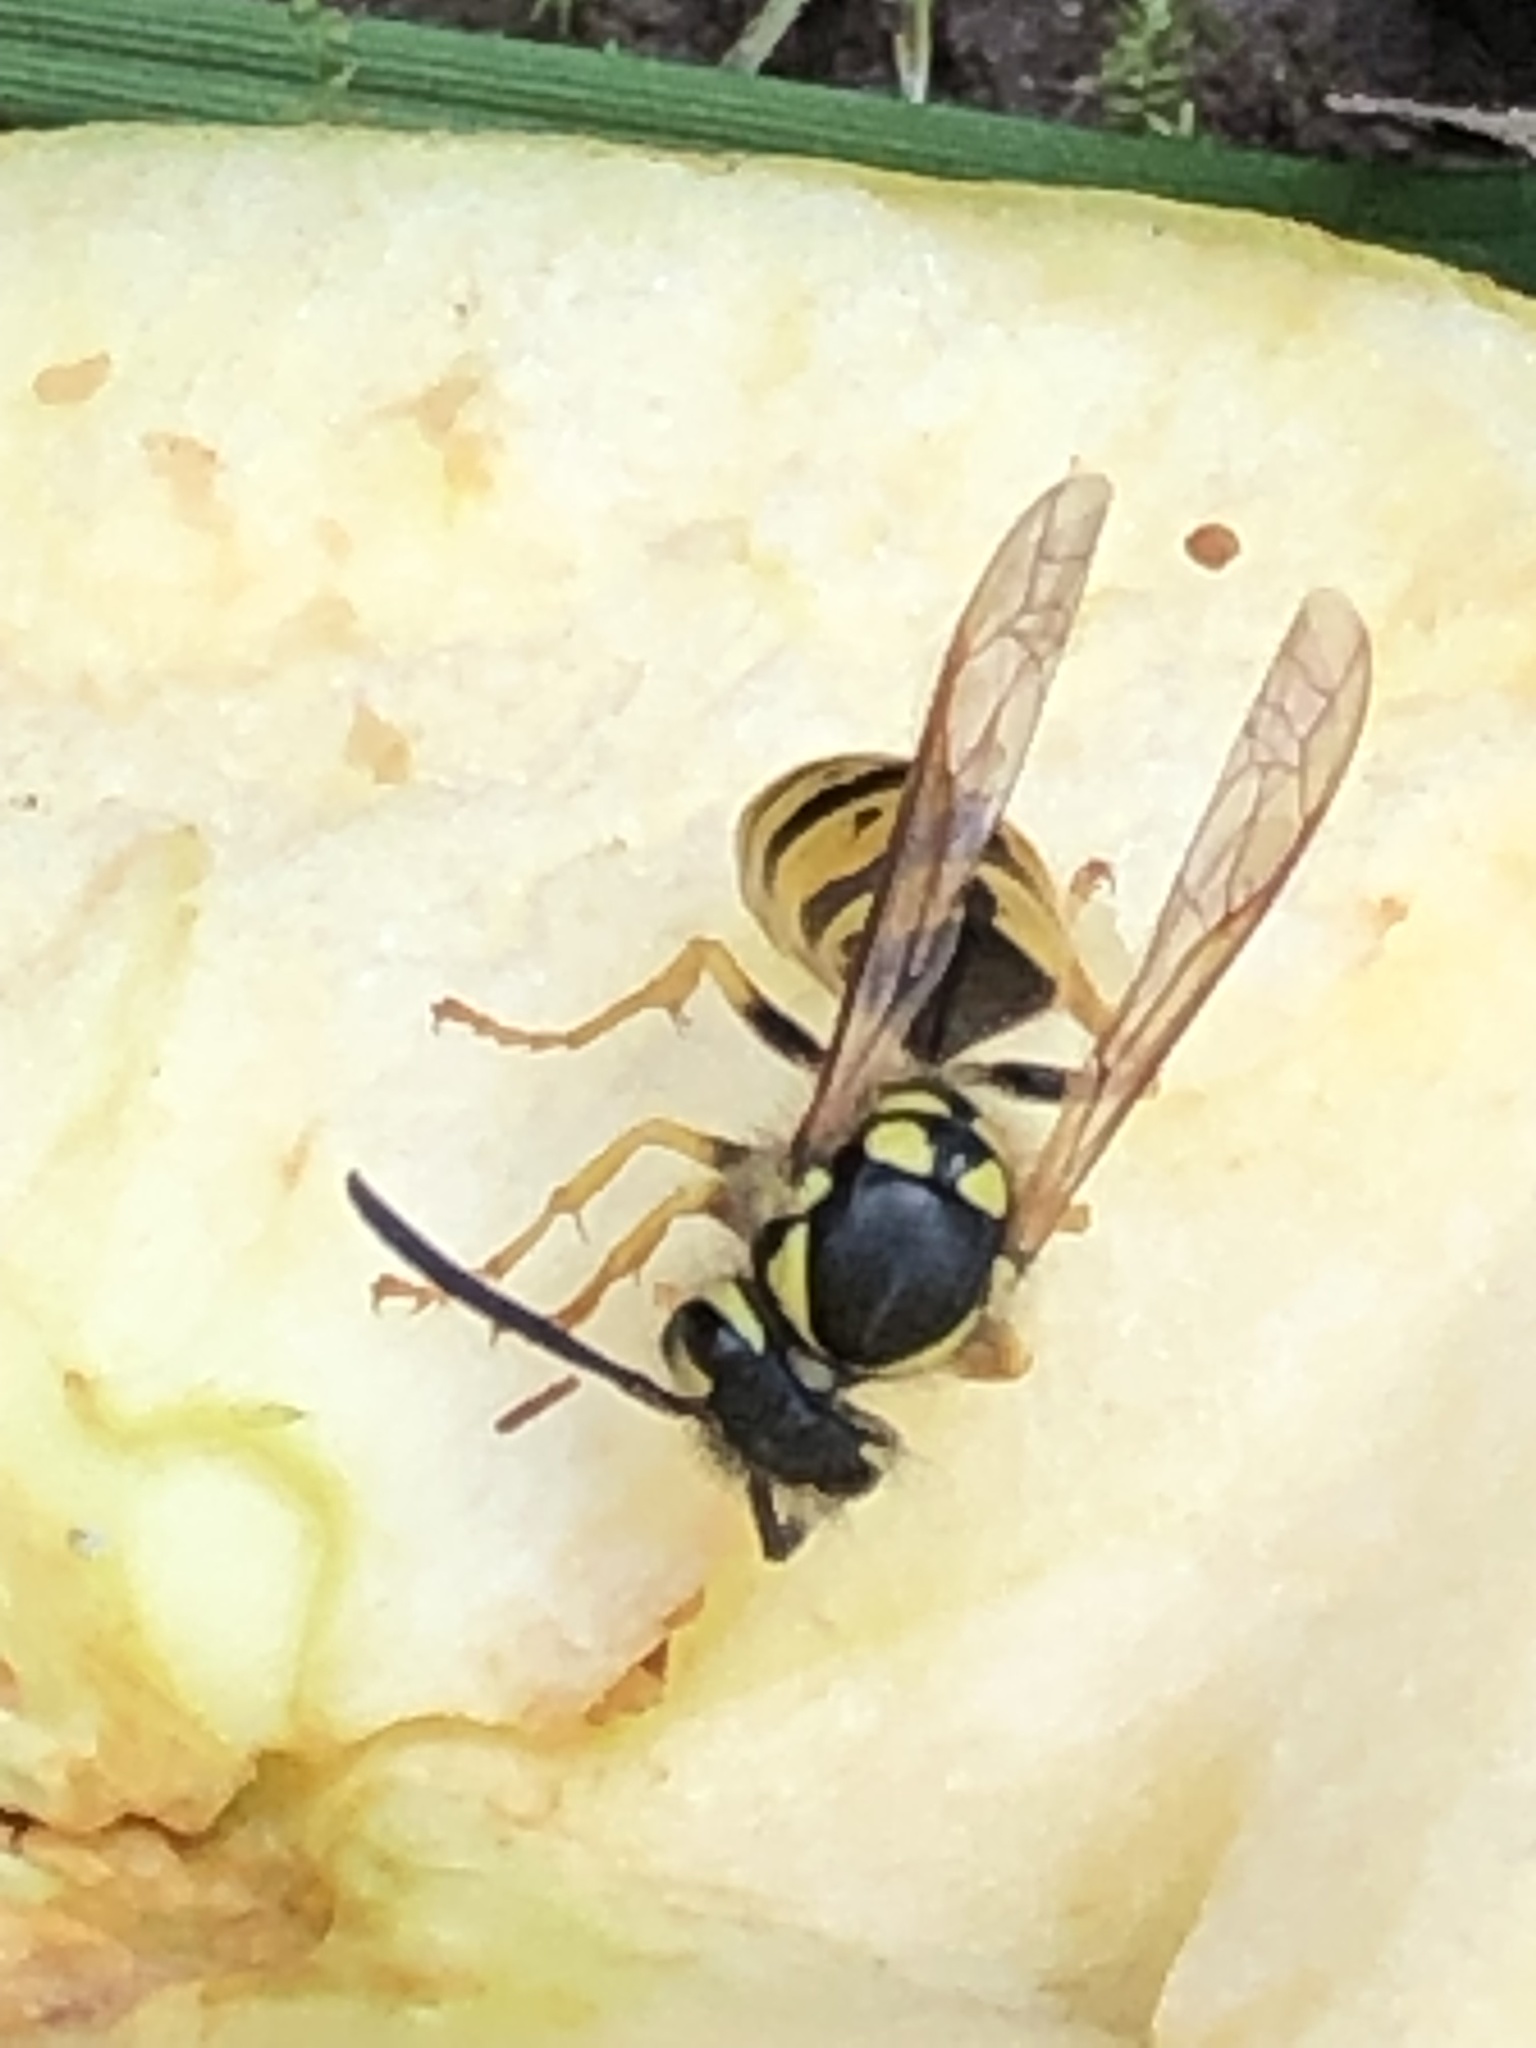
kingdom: Animalia
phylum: Arthropoda
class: Insecta
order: Hymenoptera
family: Vespidae
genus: Vespula
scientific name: Vespula germanica
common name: German wasp
